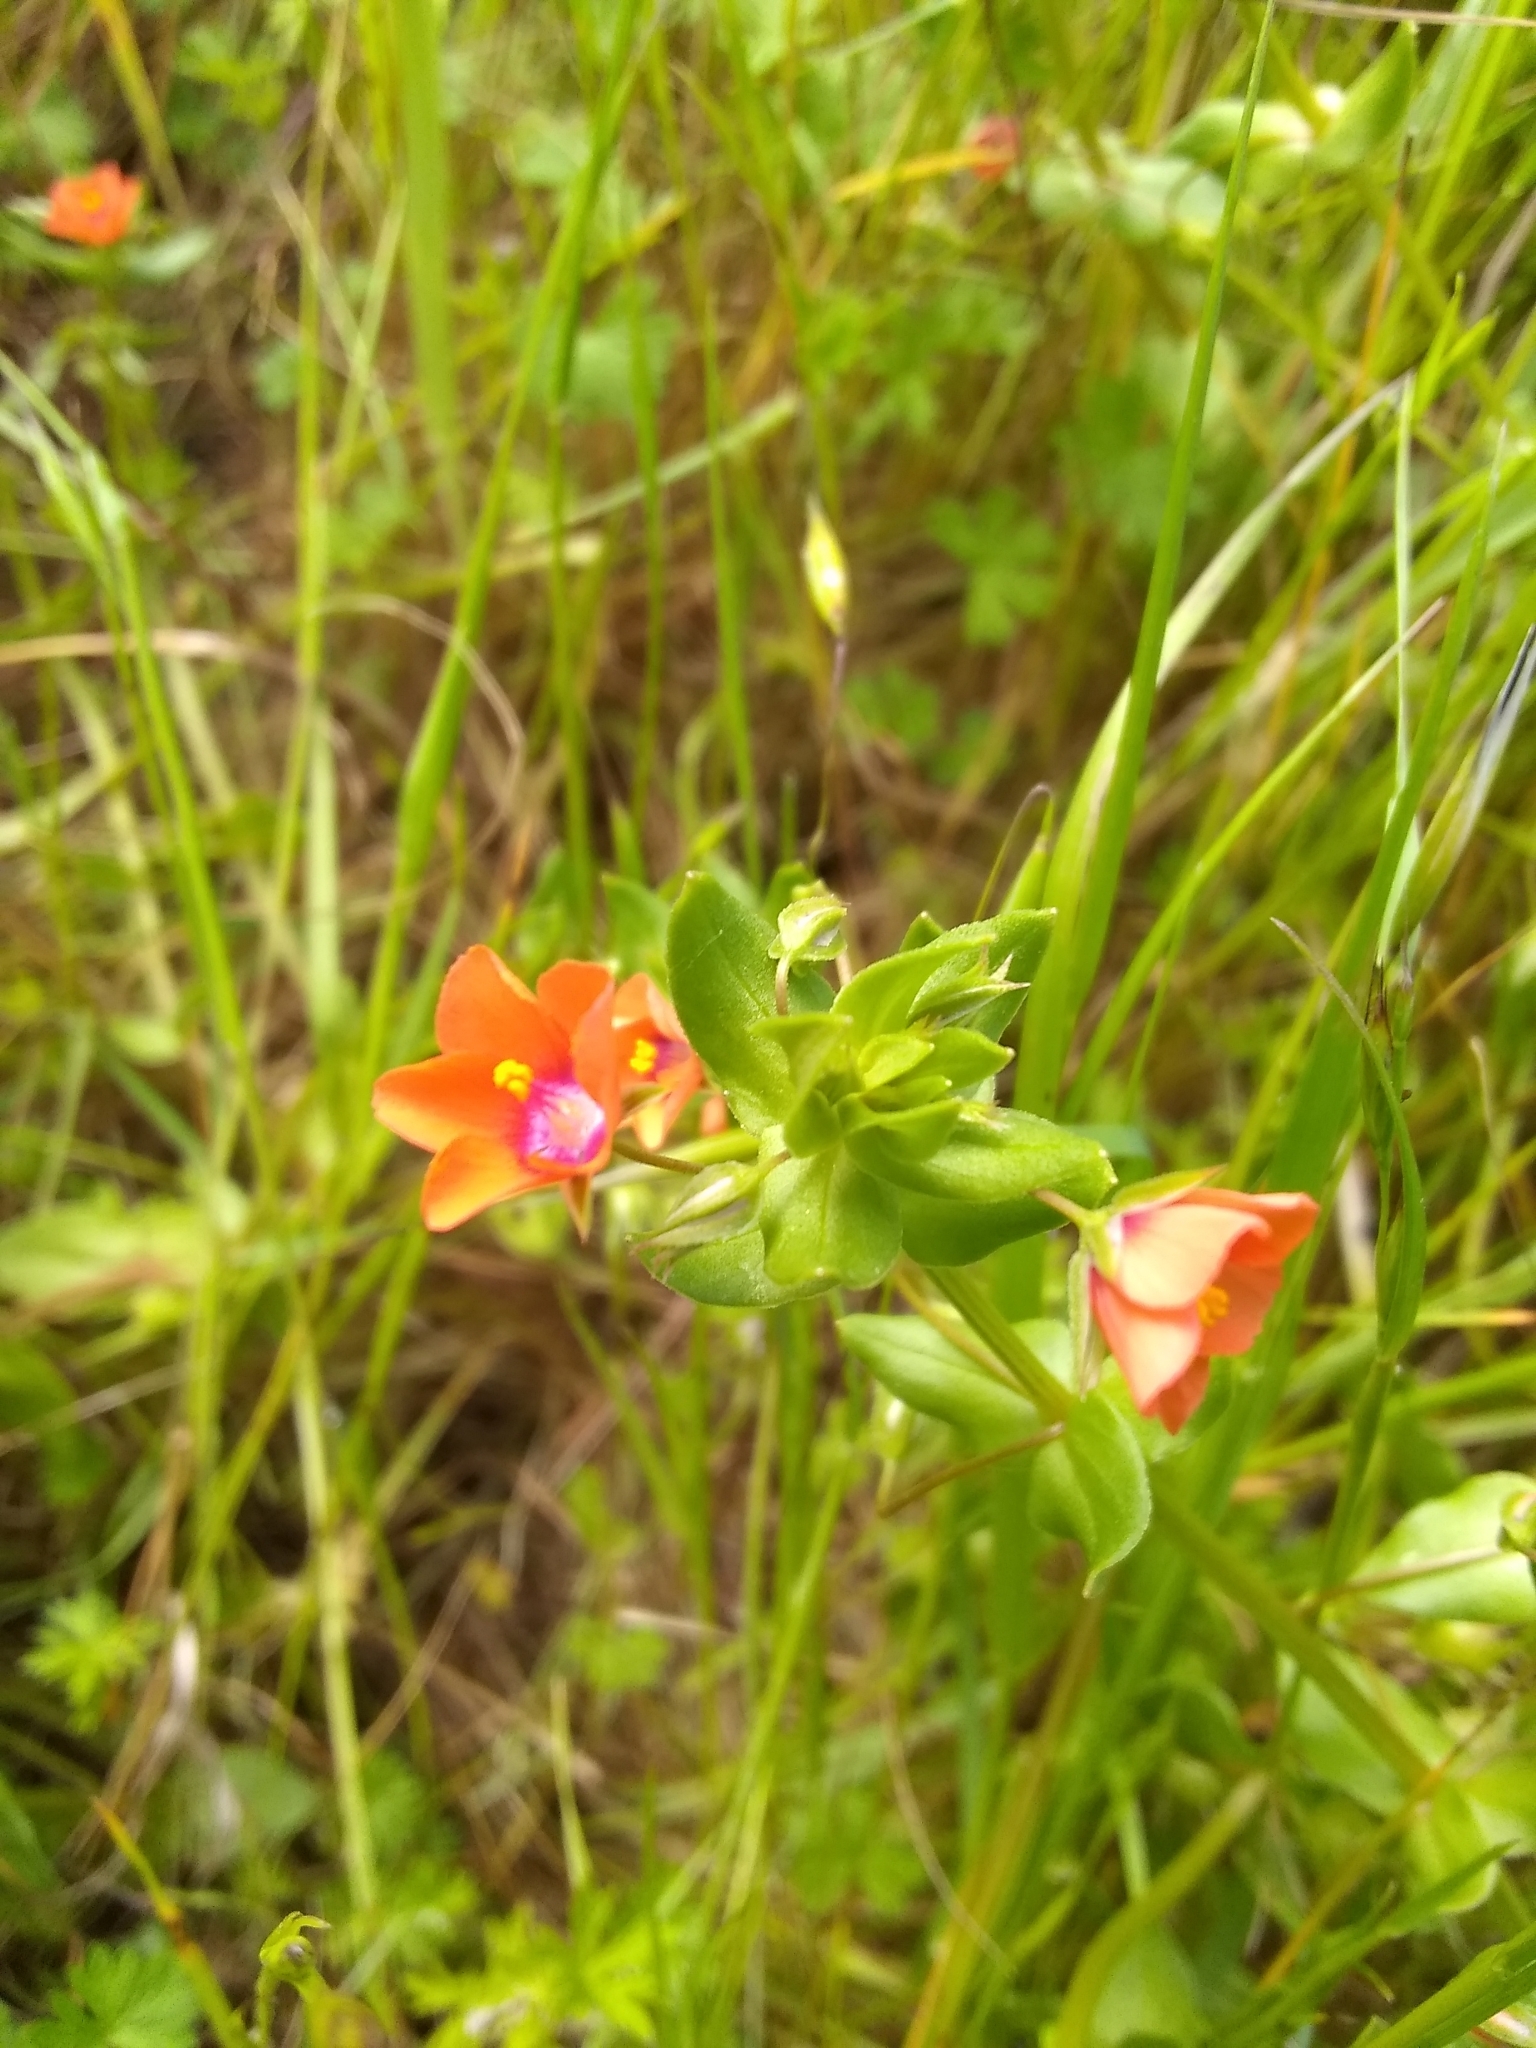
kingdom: Plantae
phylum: Tracheophyta
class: Magnoliopsida
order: Ericales
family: Primulaceae
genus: Lysimachia
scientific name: Lysimachia arvensis
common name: Scarlet pimpernel
